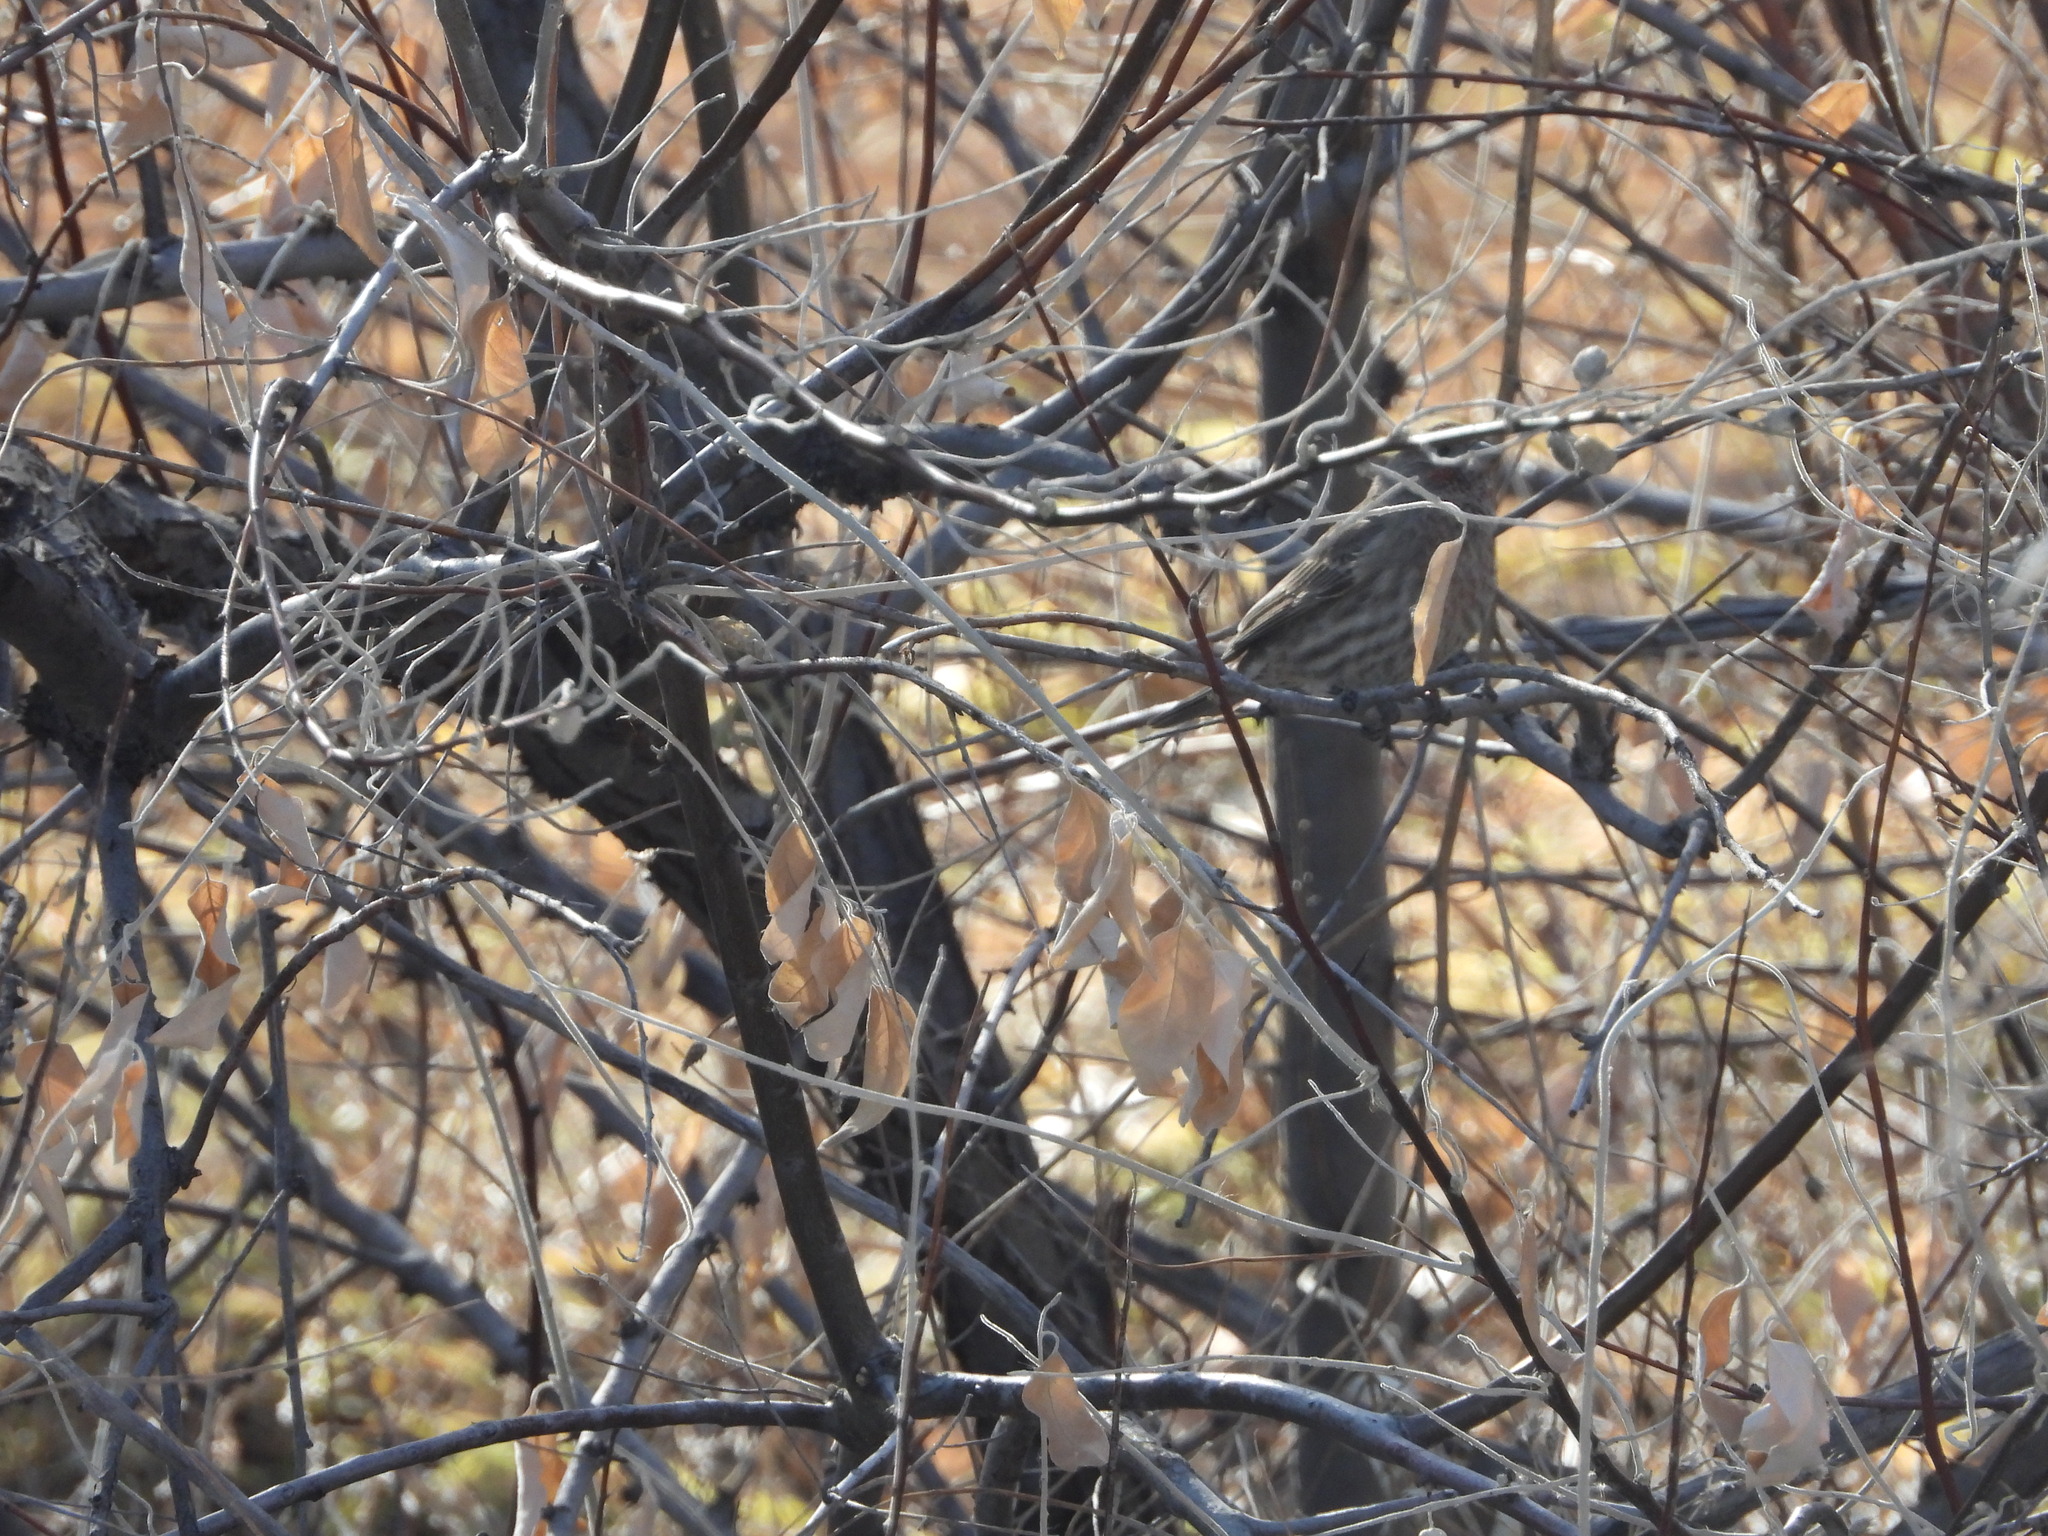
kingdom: Animalia
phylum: Chordata
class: Aves
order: Passeriformes
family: Fringillidae
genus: Haemorhous
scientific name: Haemorhous mexicanus
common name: House finch
